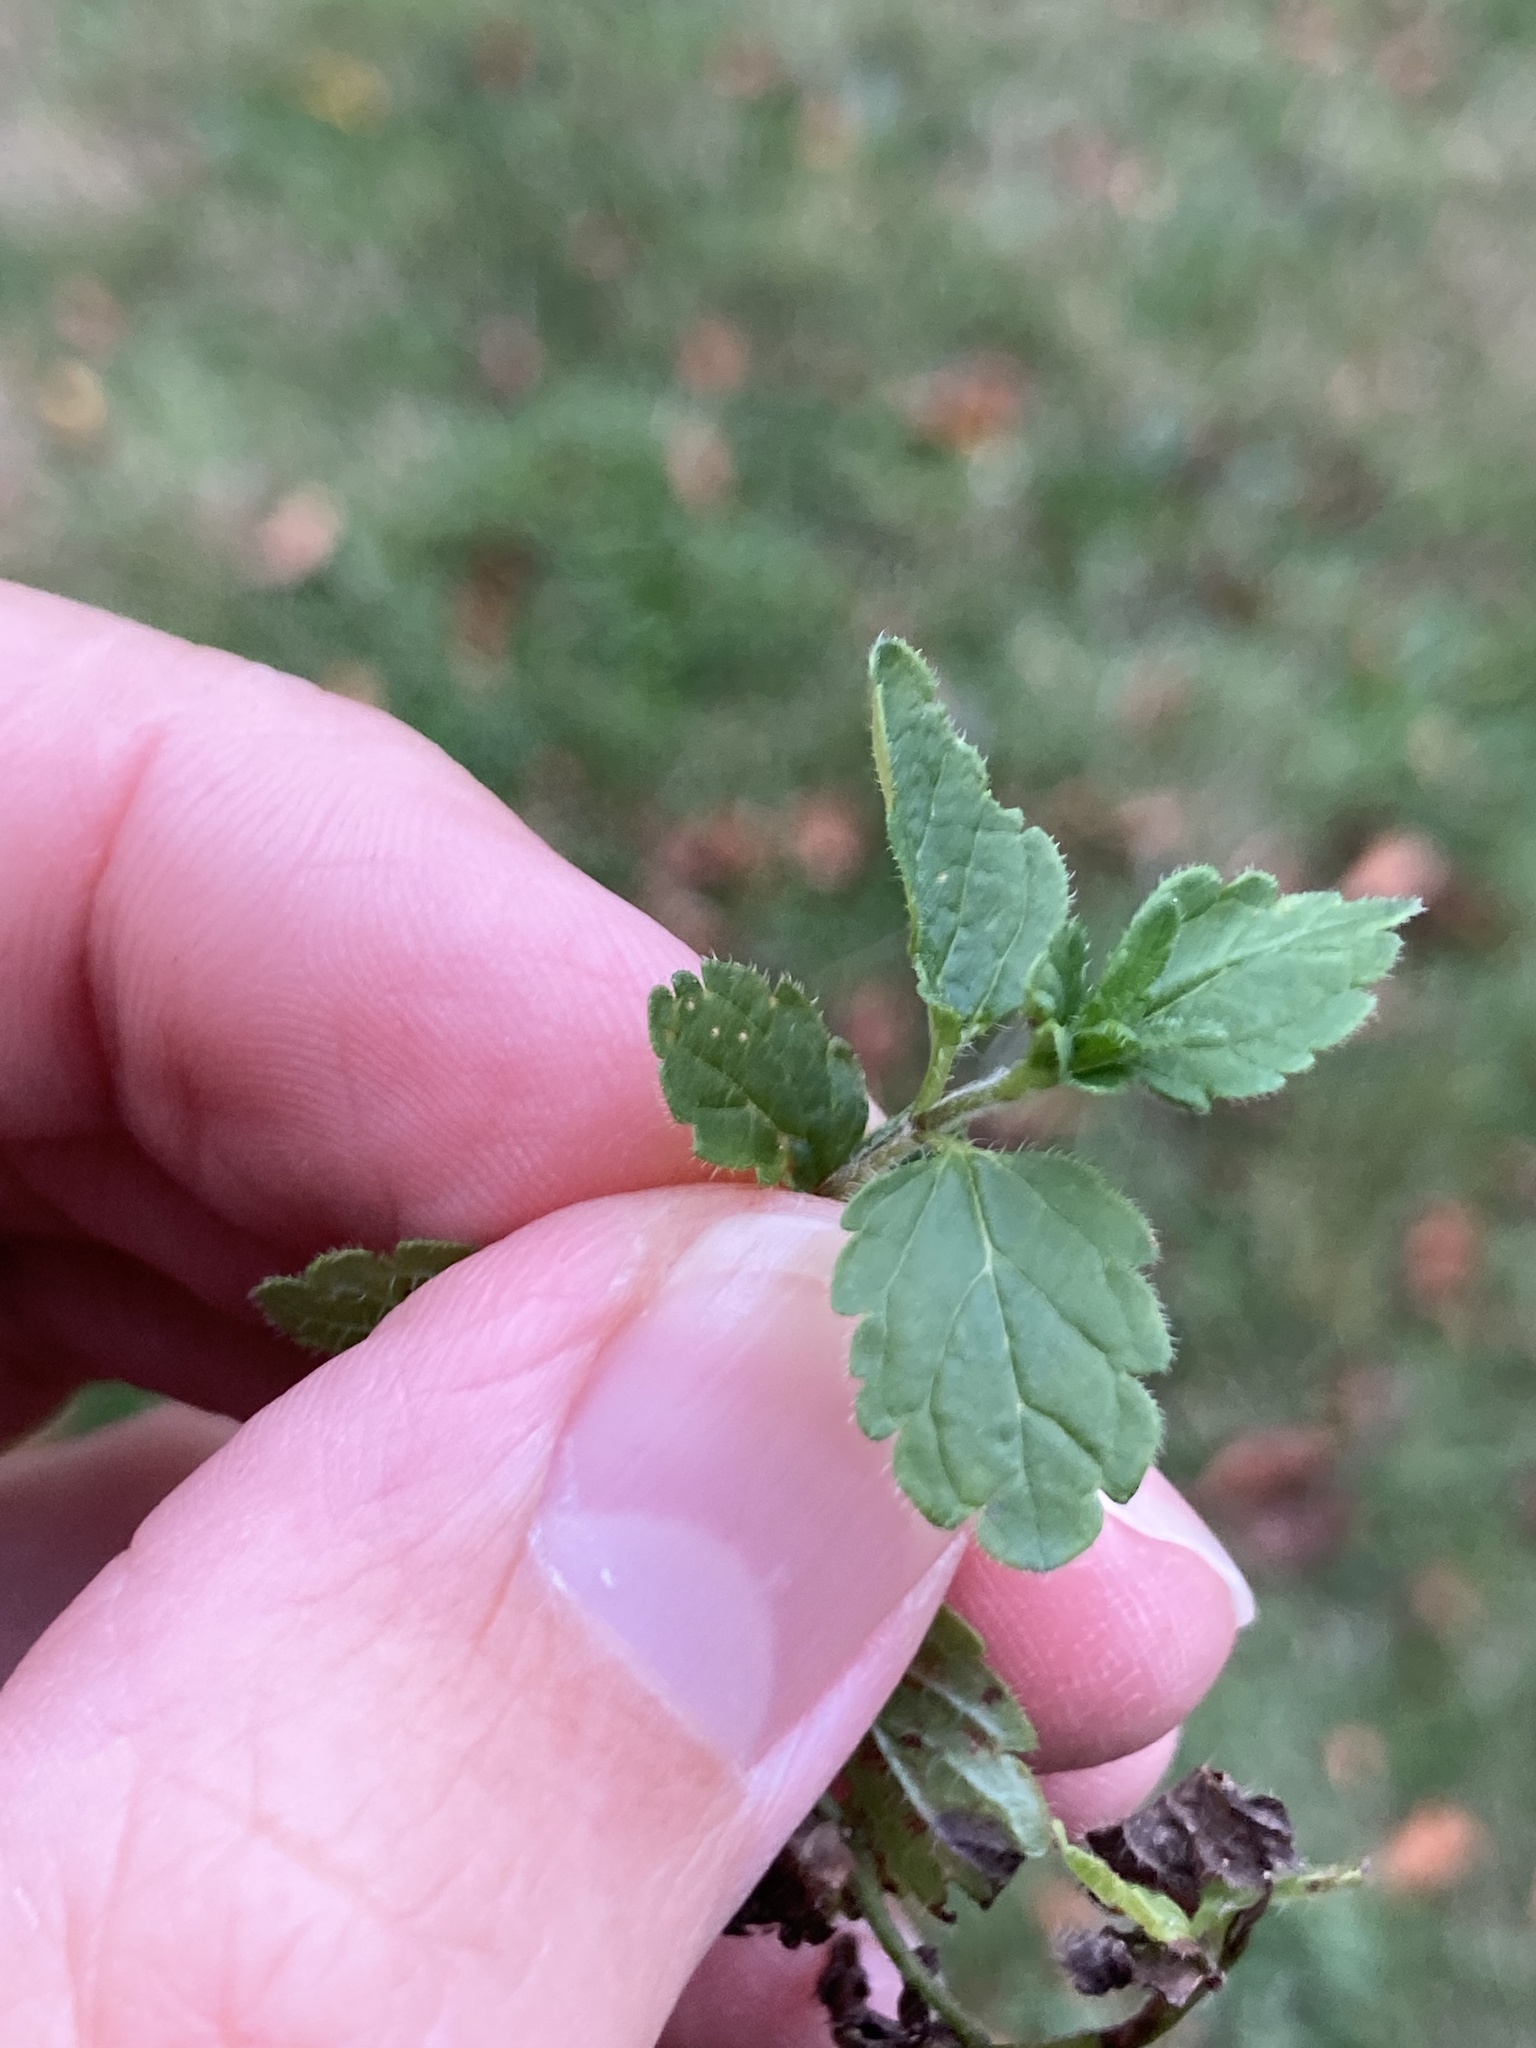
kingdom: Plantae
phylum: Tracheophyta
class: Magnoliopsida
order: Lamiales
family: Plantaginaceae
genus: Veronica
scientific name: Veronica chamaedrys
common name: Germander speedwell
